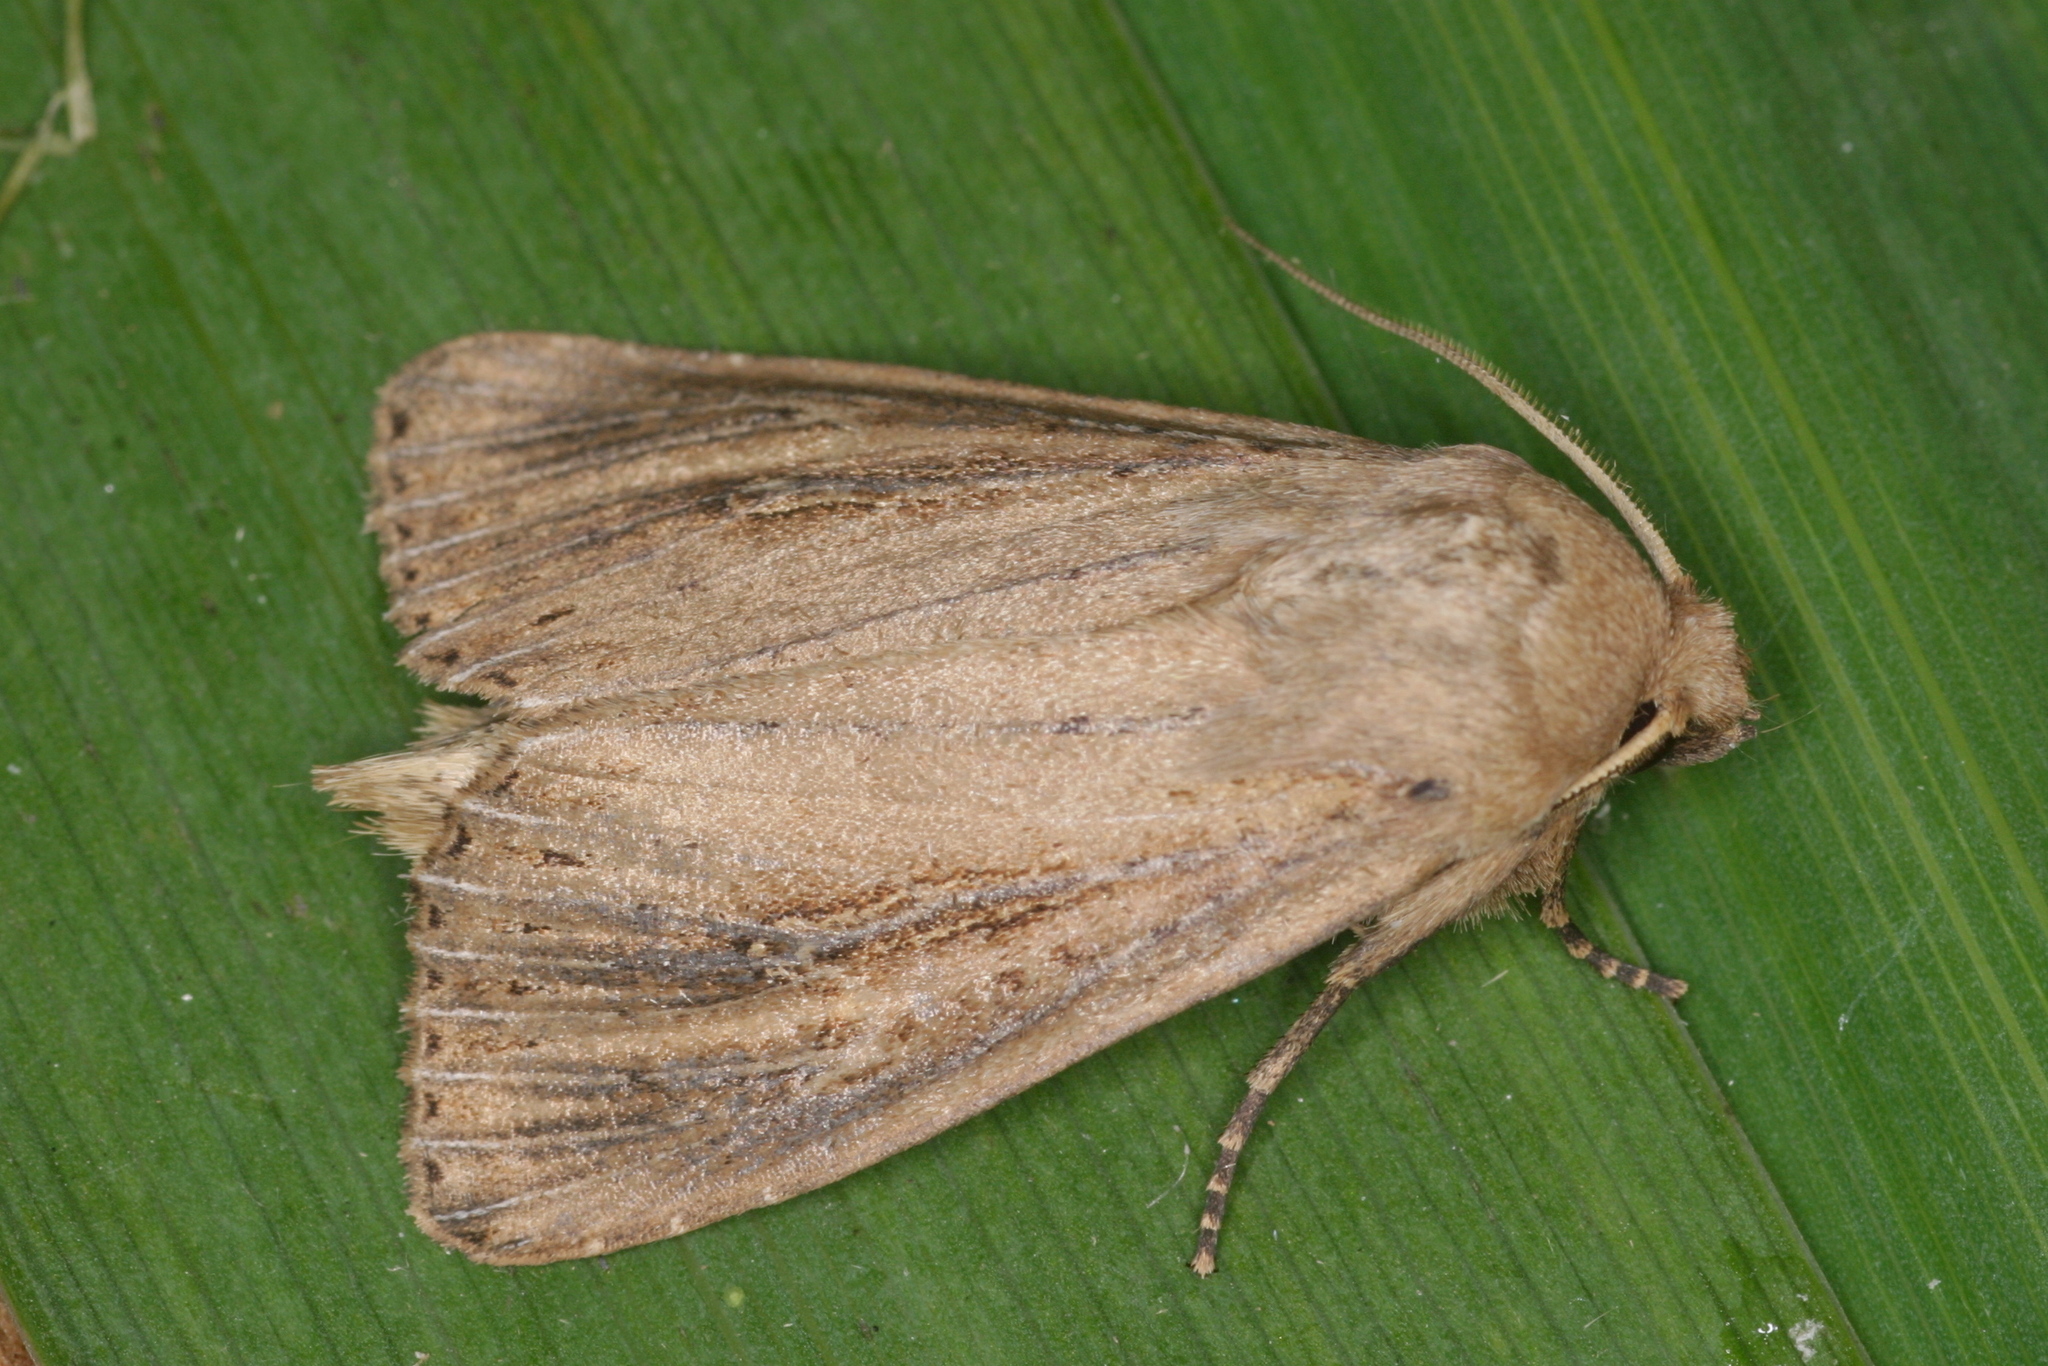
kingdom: Animalia
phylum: Arthropoda
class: Insecta
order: Lepidoptera
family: Noctuidae
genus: Nonagria
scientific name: Nonagria typhae
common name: Bulrush wainscot
